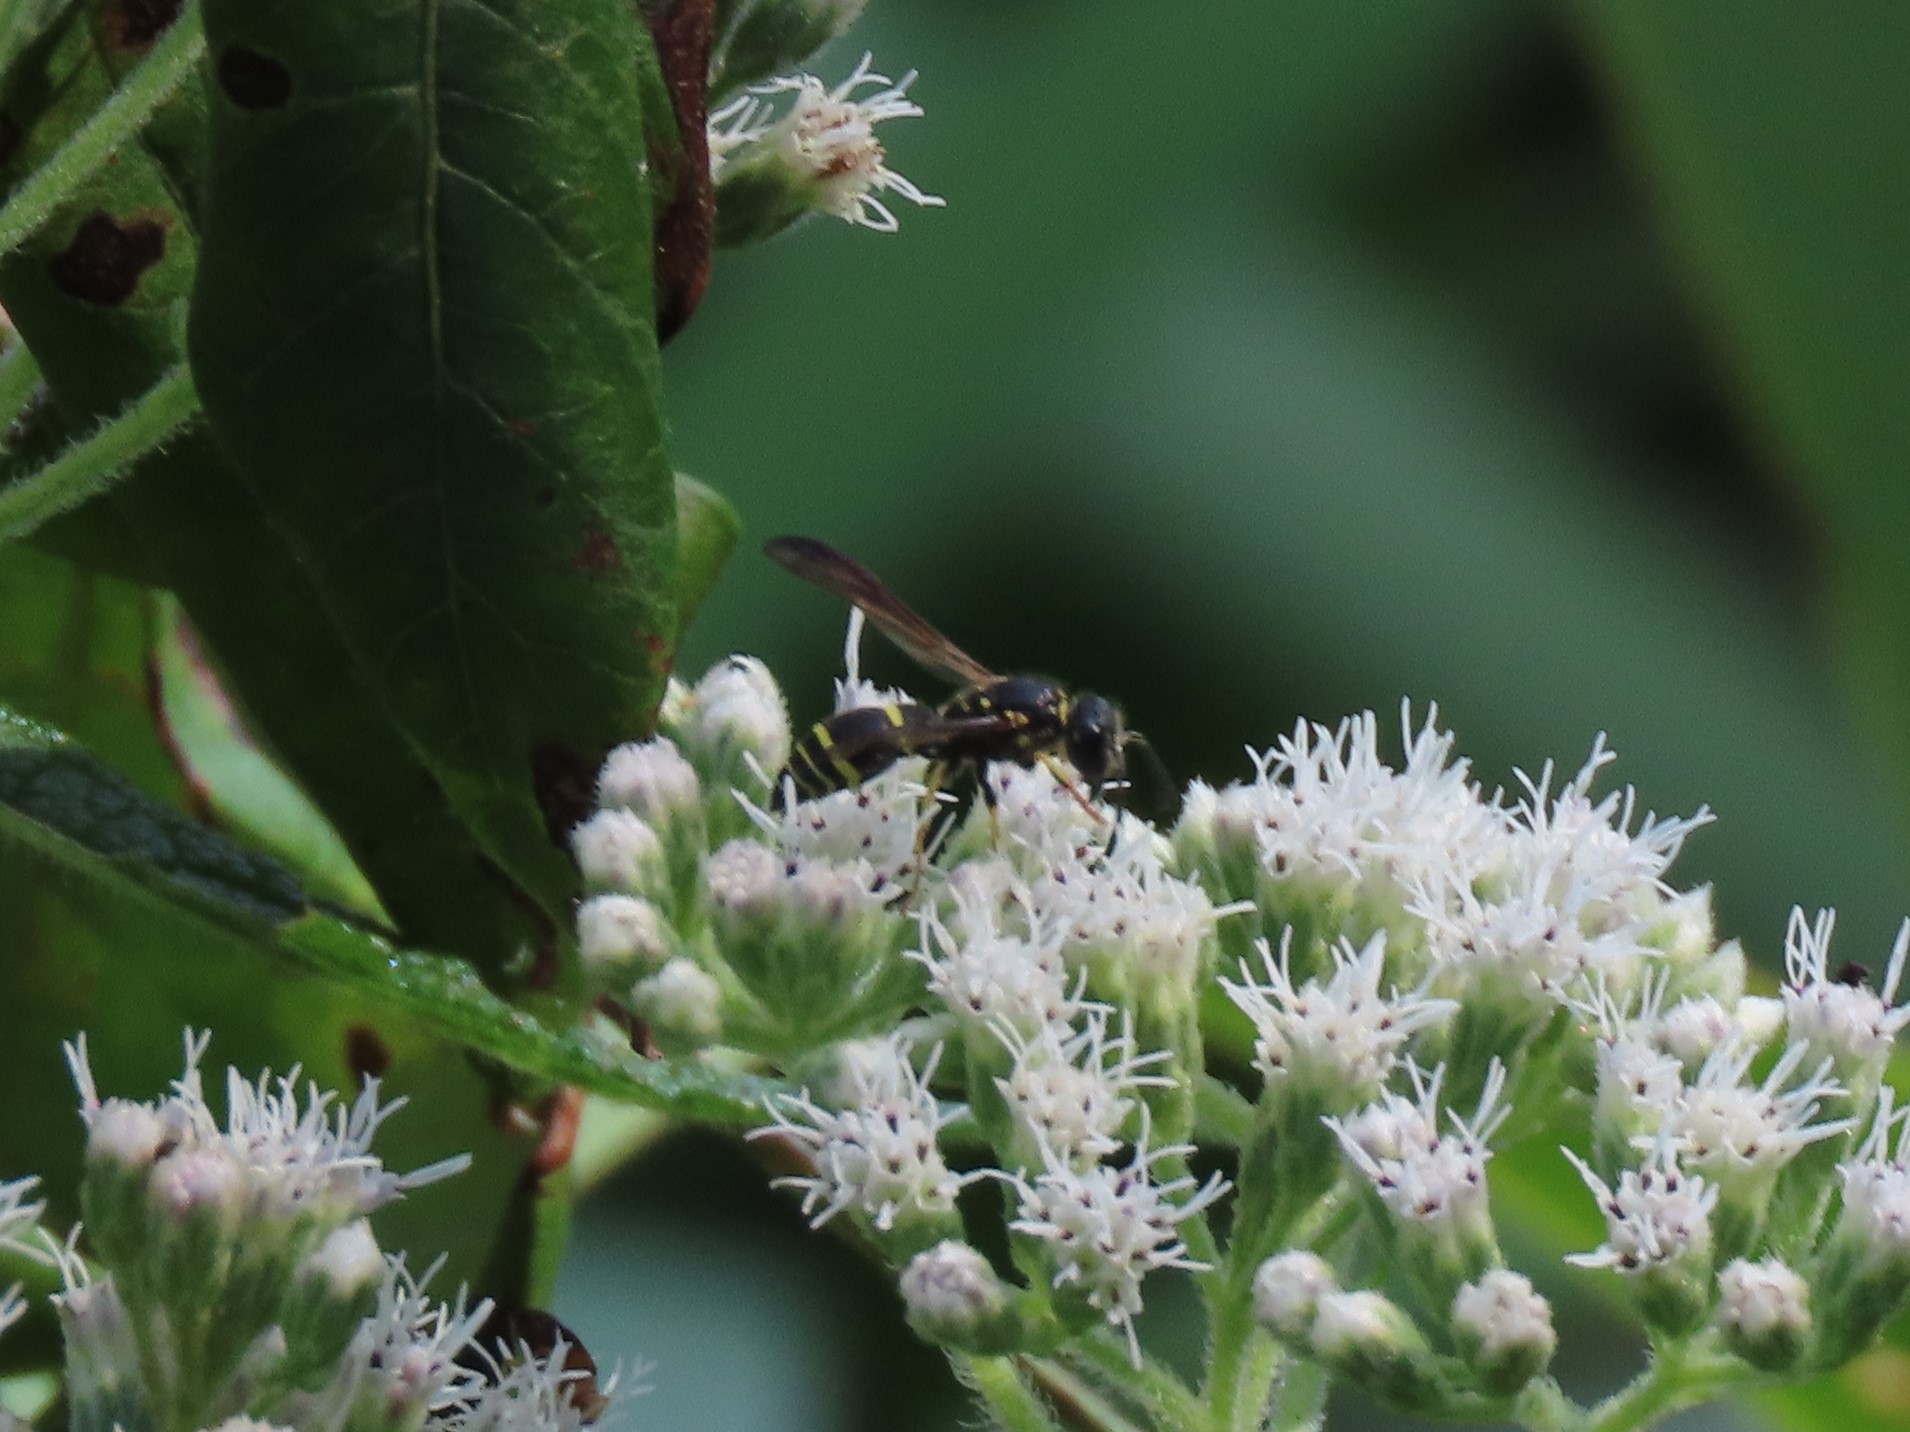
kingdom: Animalia
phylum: Arthropoda
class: Insecta
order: Hymenoptera
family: Vespidae
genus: Ancistrocerus
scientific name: Ancistrocerus adiabatus
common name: Bramble mason wasp
